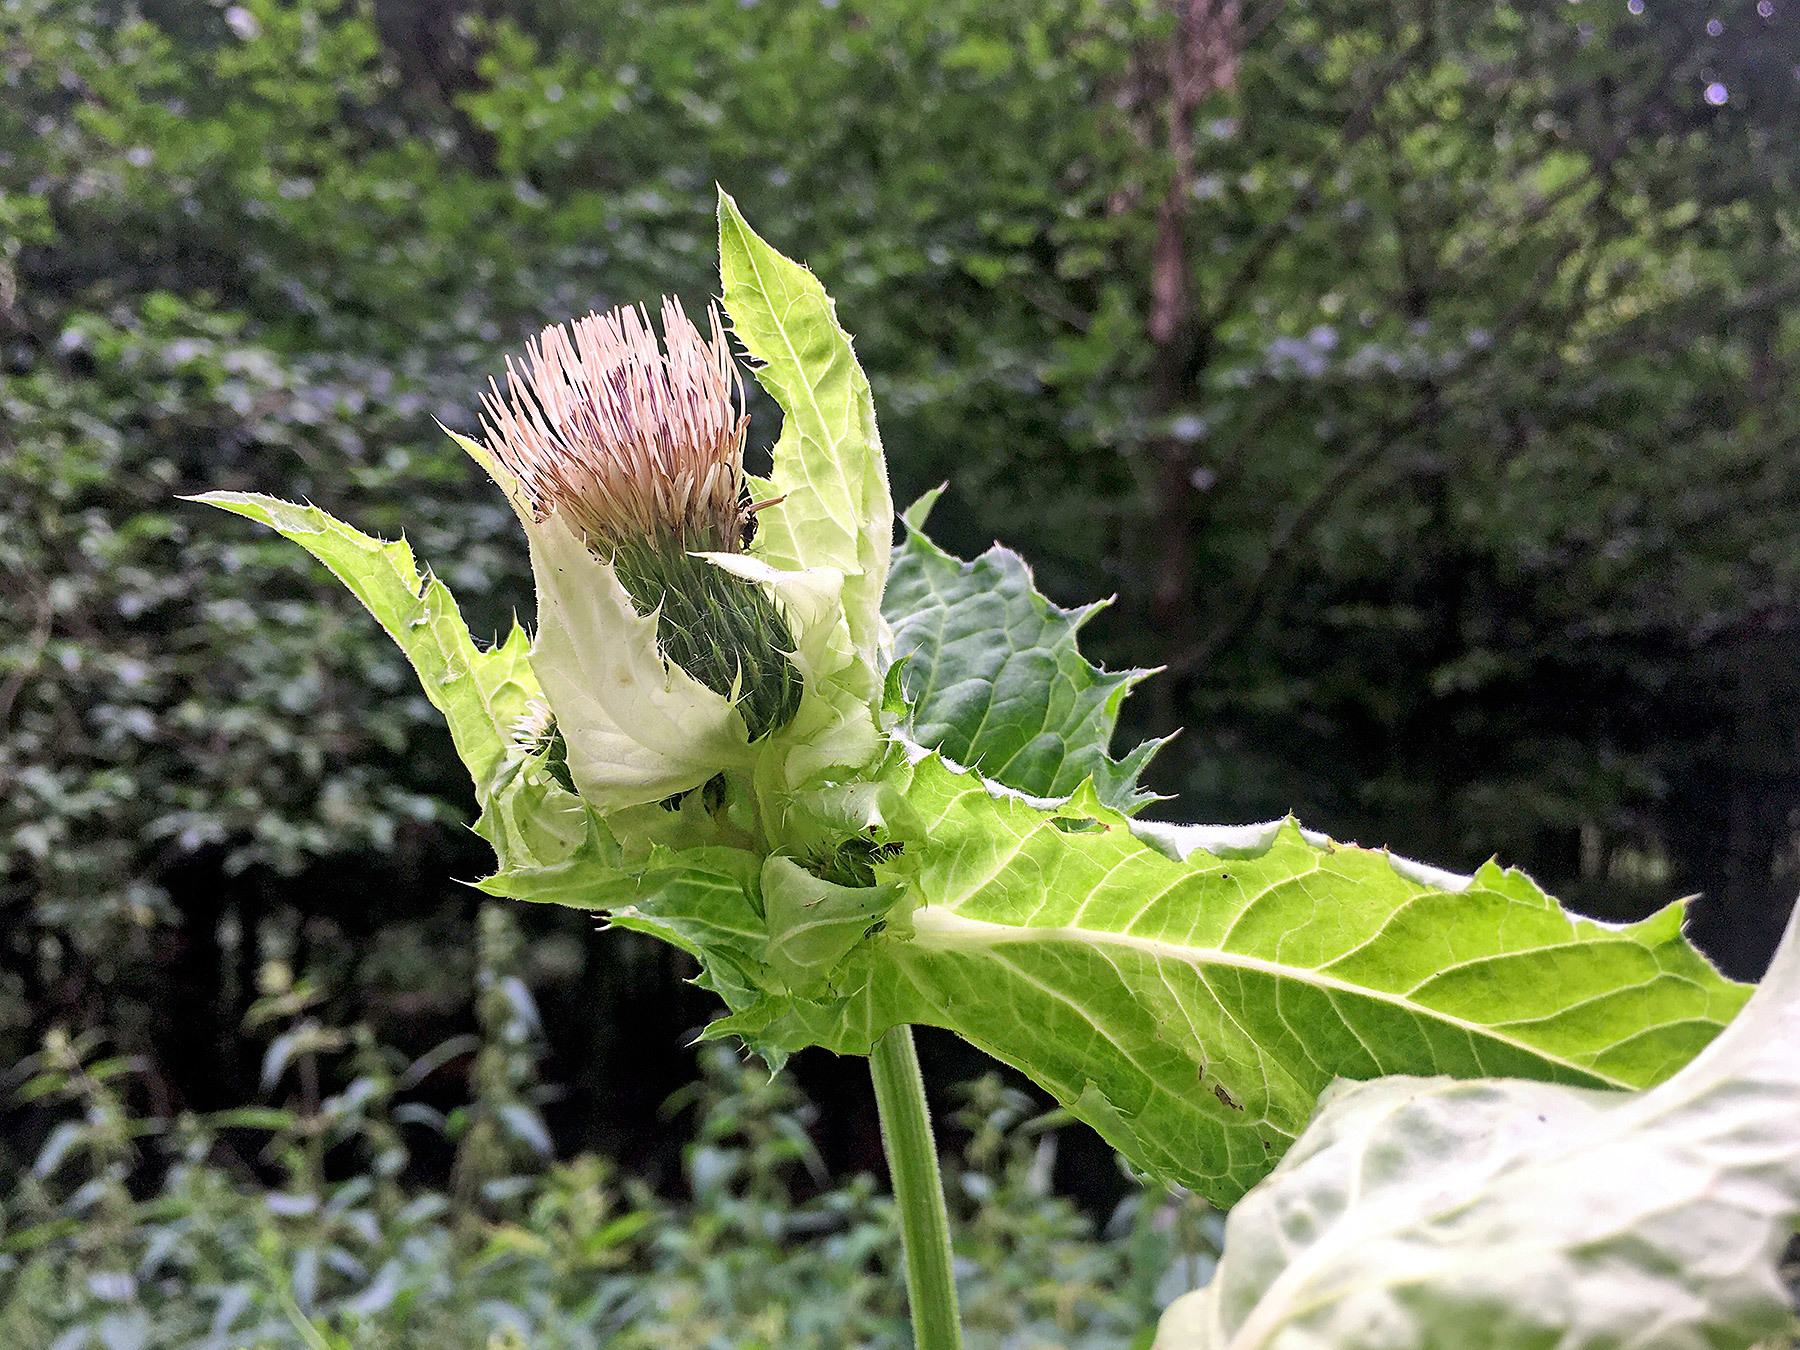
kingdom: Plantae
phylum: Tracheophyta
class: Magnoliopsida
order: Asterales
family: Asteraceae
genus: Cirsium
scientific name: Cirsium oleraceum
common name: Cabbage thistle
